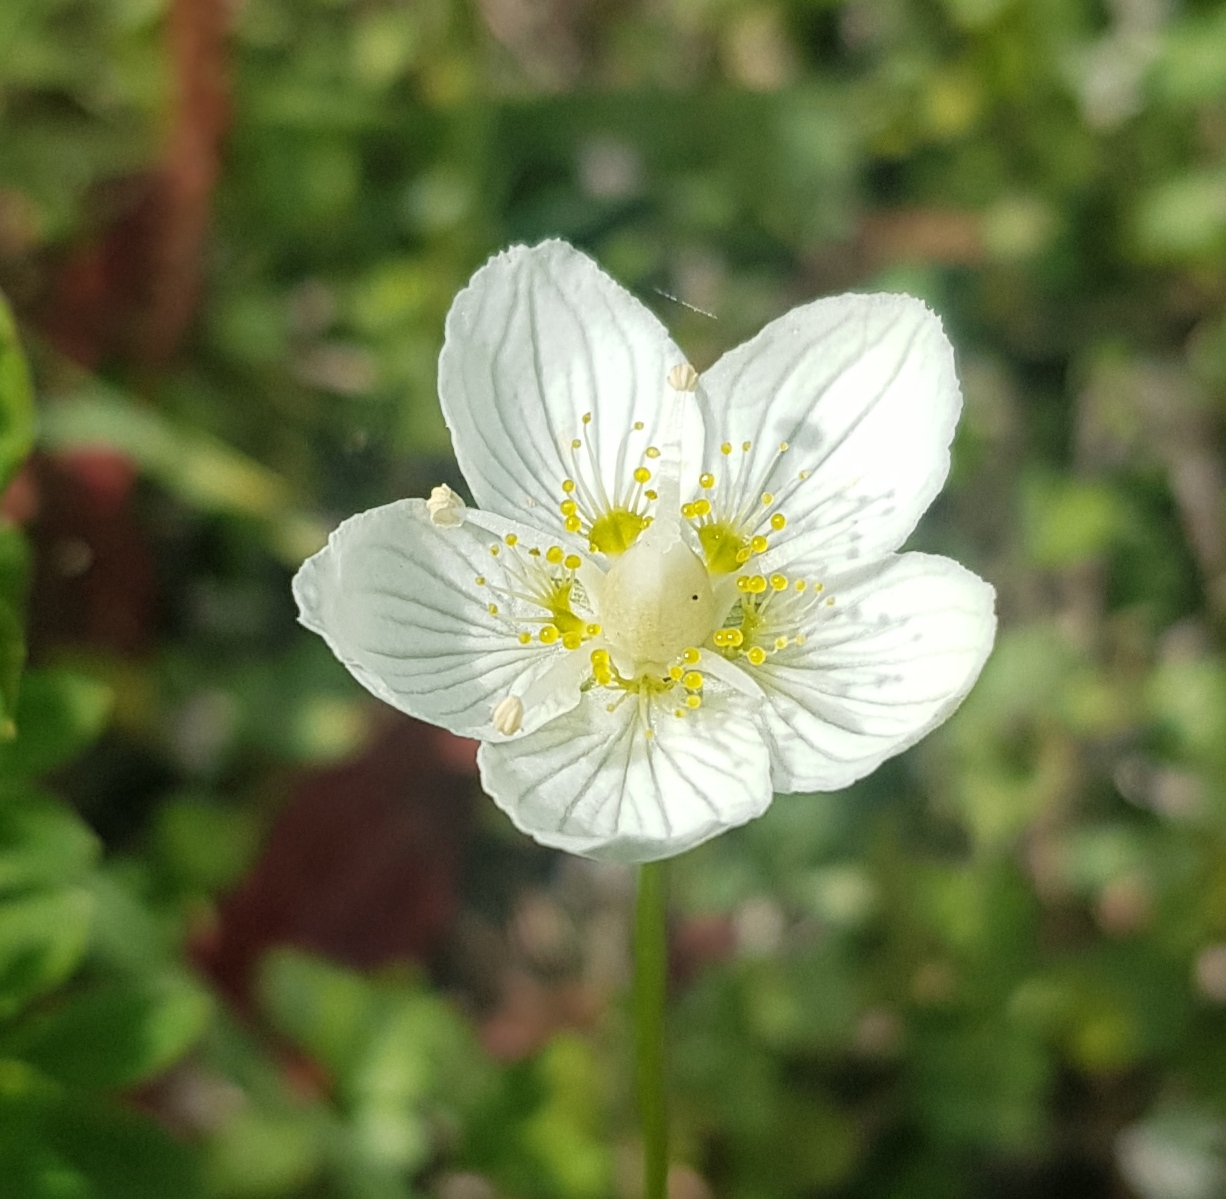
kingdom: Plantae
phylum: Tracheophyta
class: Magnoliopsida
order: Celastrales
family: Parnassiaceae
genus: Parnassia
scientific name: Parnassia palustris
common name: Grass-of-parnassus
